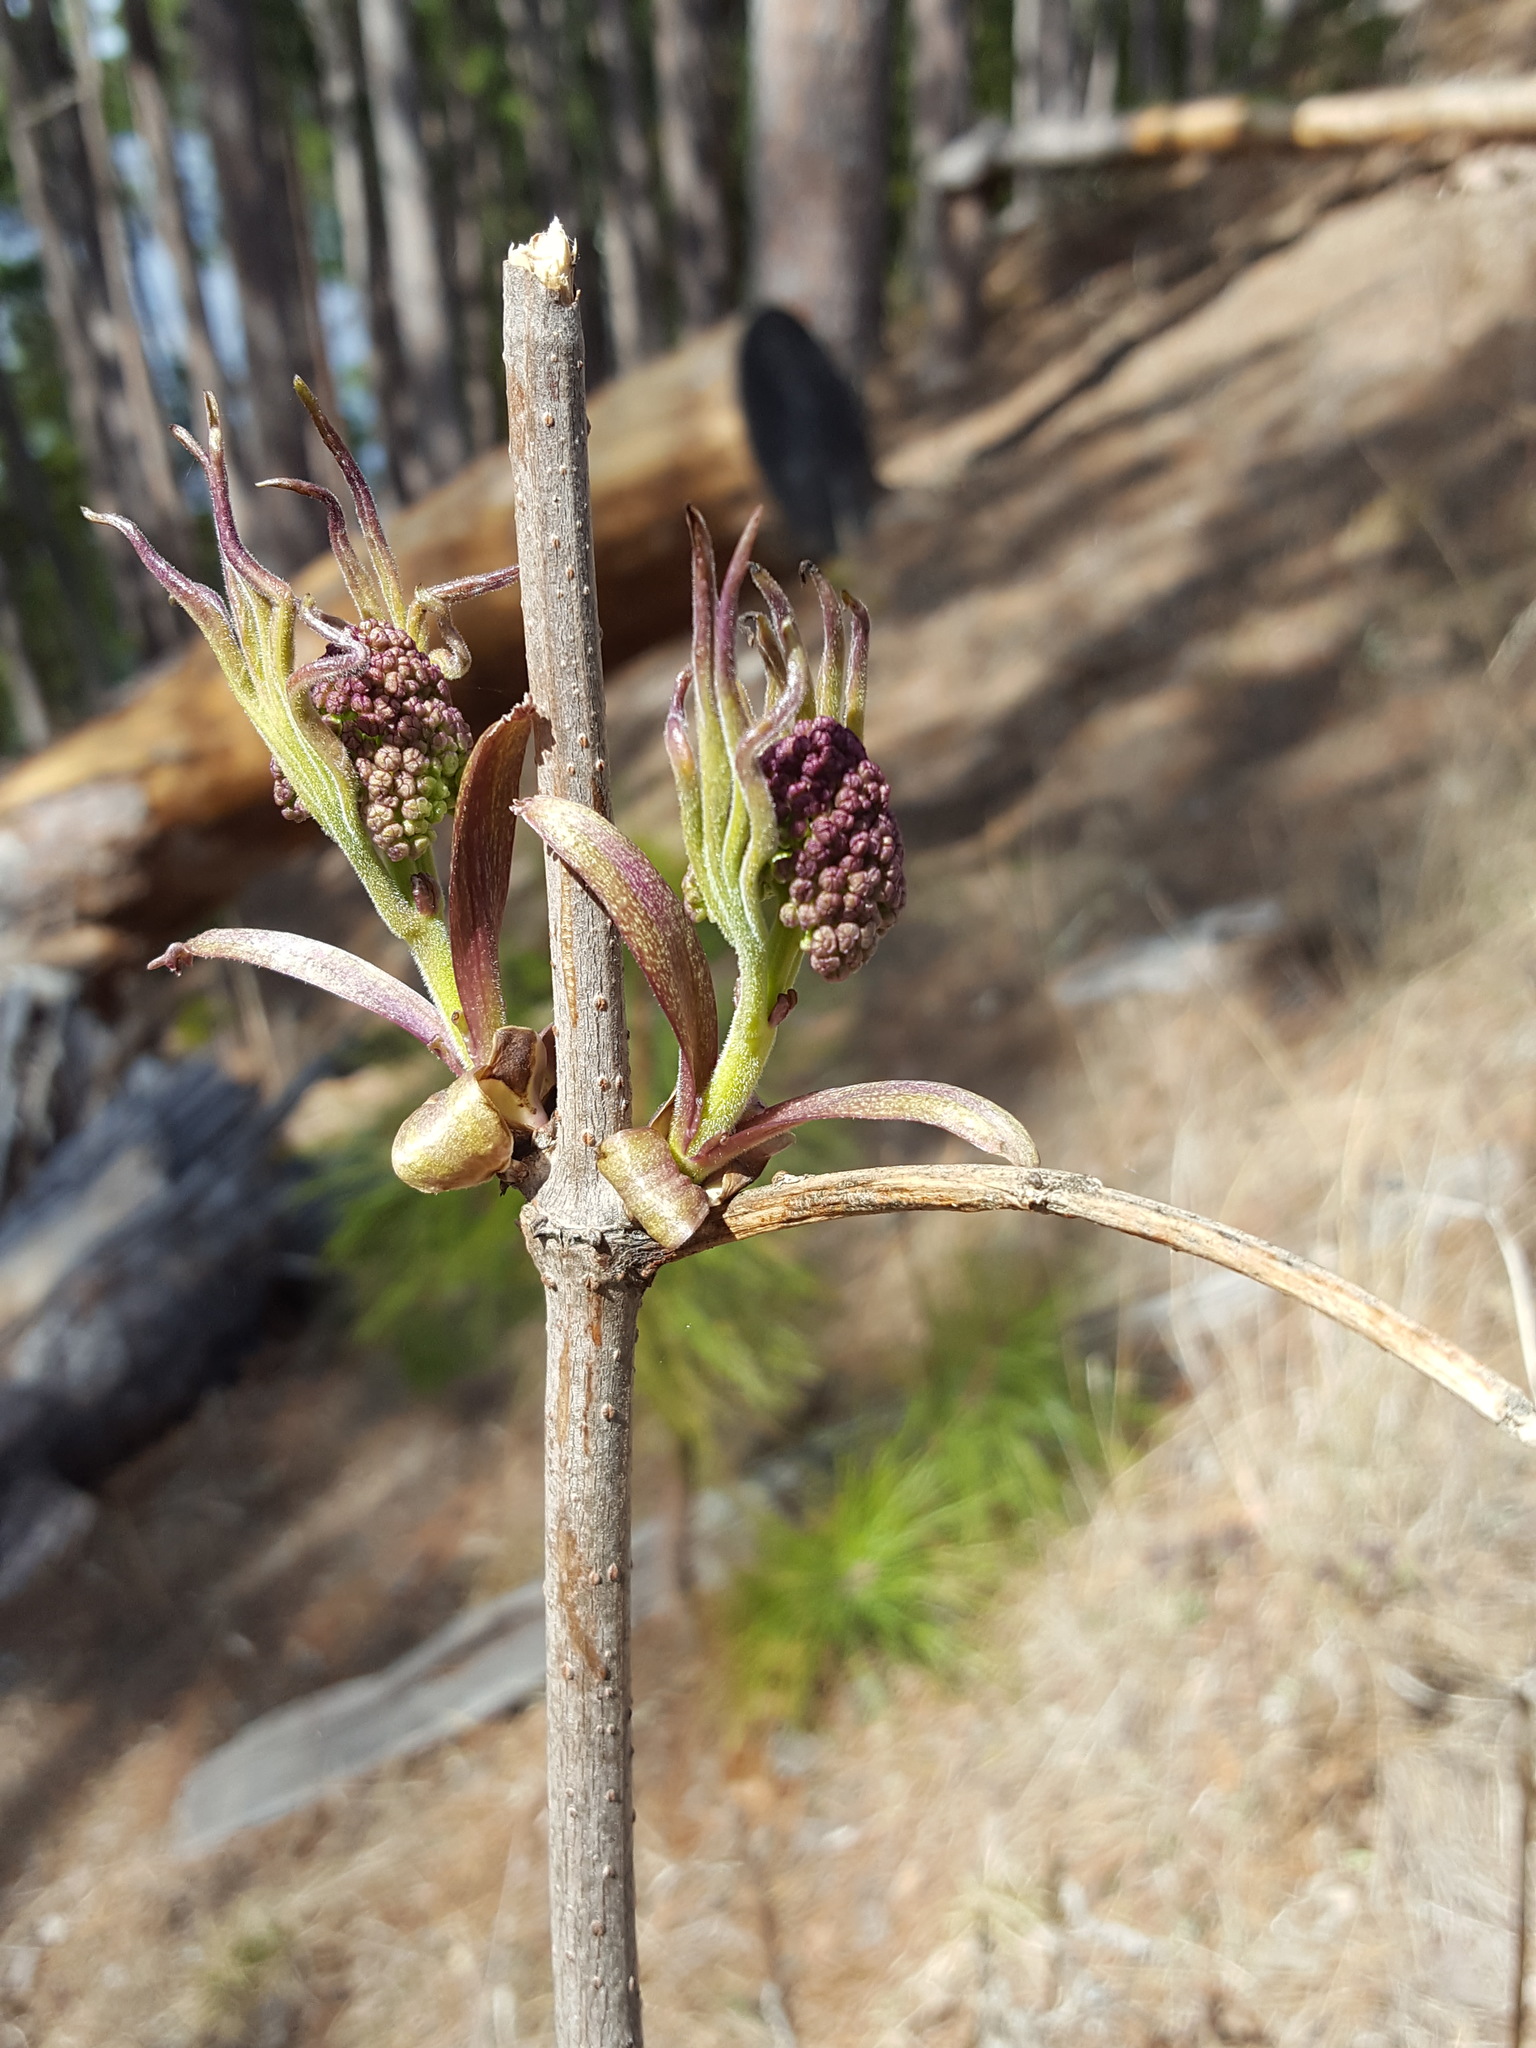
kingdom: Plantae
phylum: Tracheophyta
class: Magnoliopsida
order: Dipsacales
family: Viburnaceae
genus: Sambucus
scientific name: Sambucus racemosa
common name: Red-berried elder
